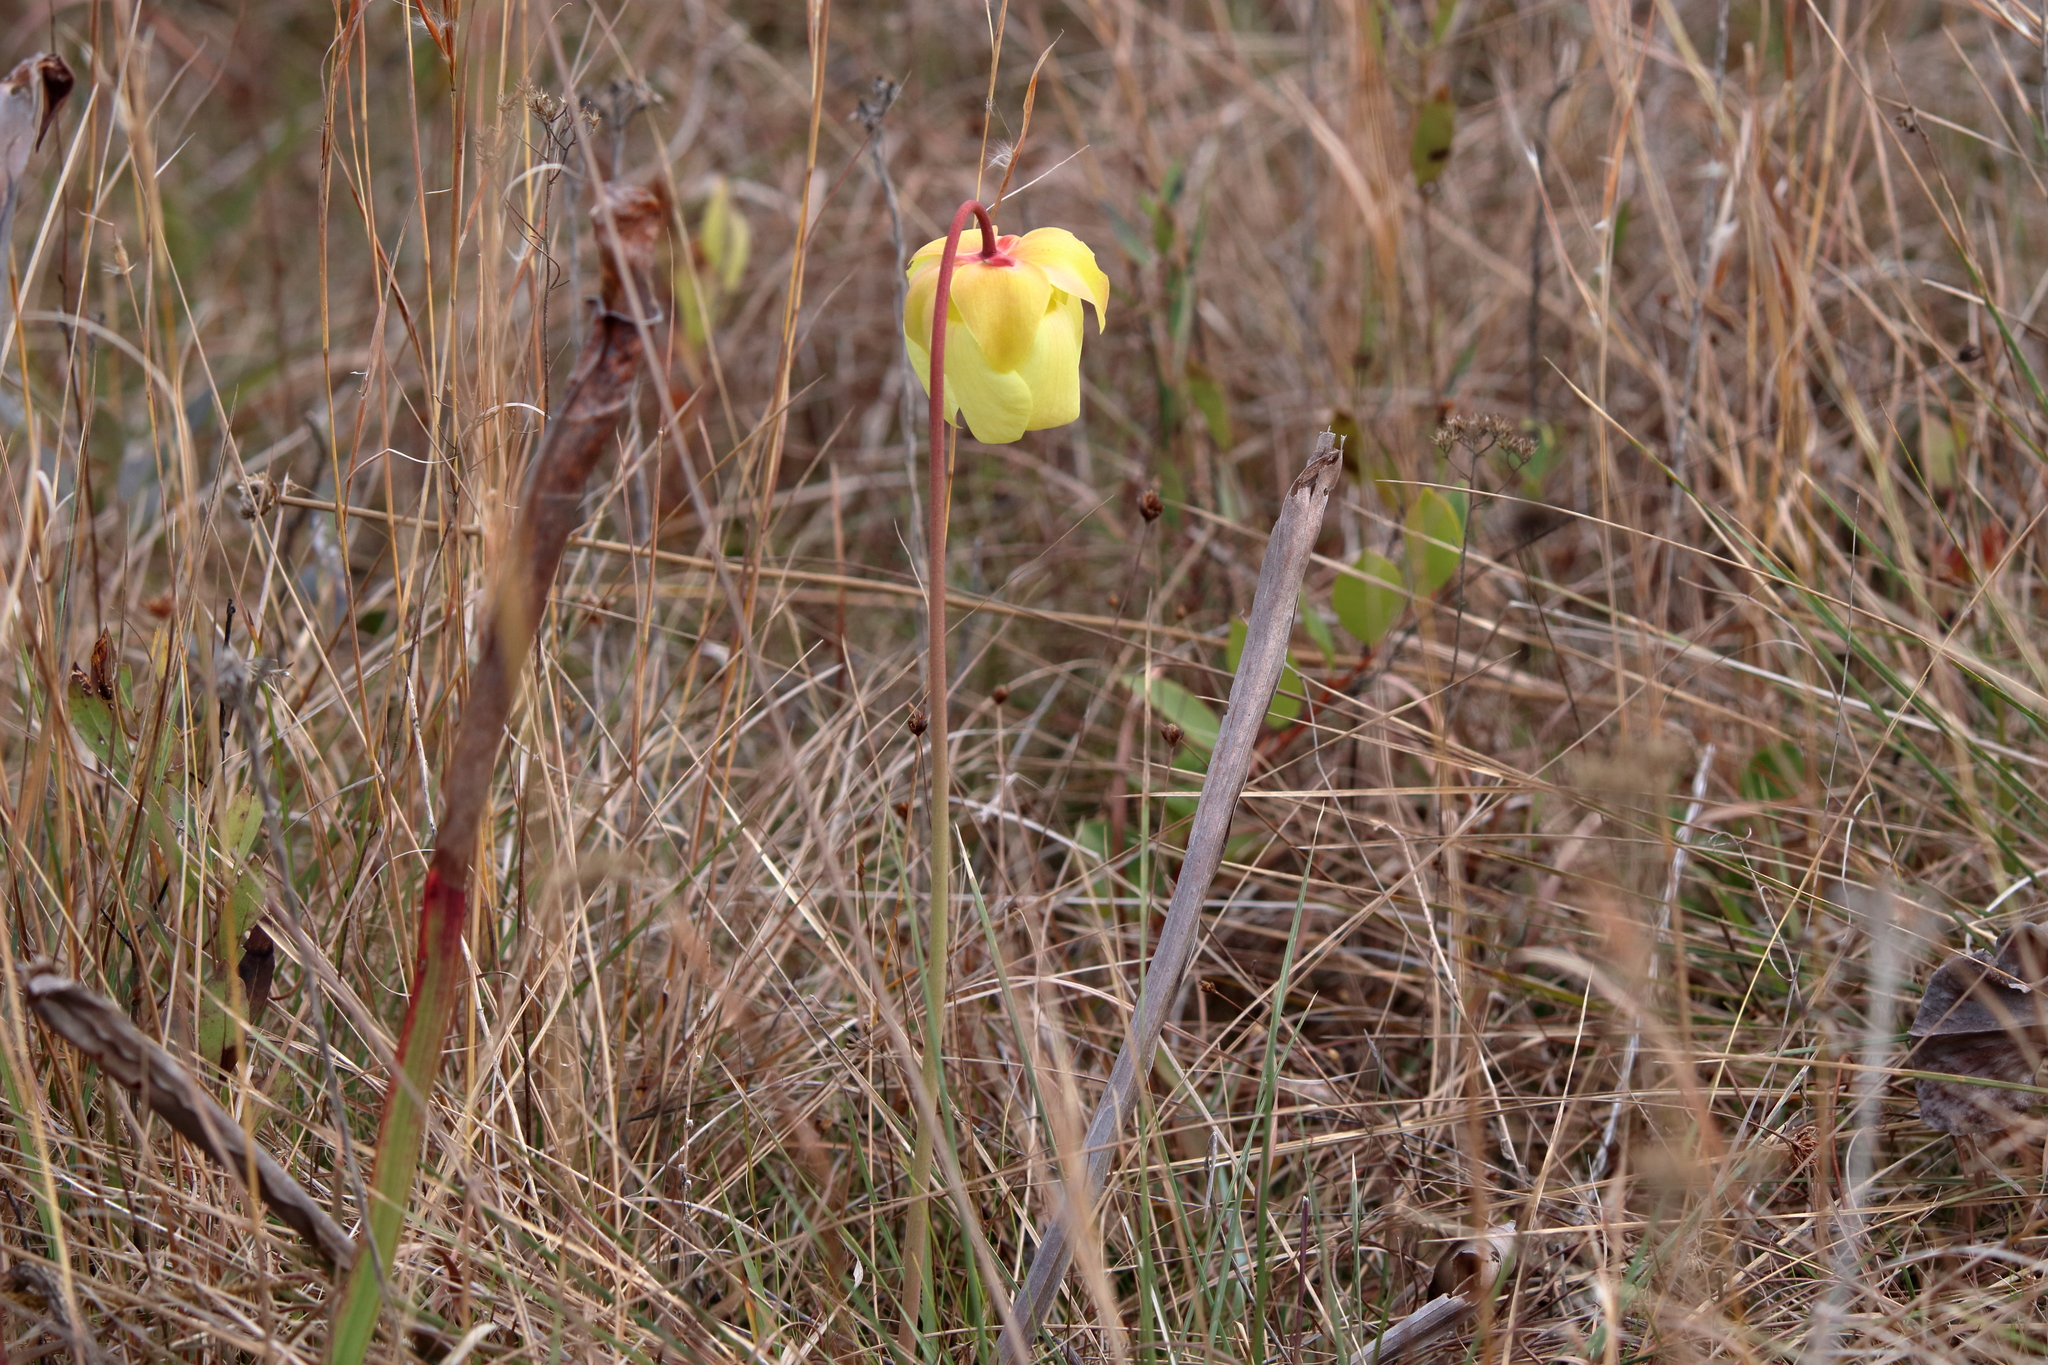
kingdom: Plantae
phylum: Tracheophyta
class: Magnoliopsida
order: Ericales
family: Sarraceniaceae
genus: Sarracenia
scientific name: Sarracenia alata
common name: Yellow trumpets
